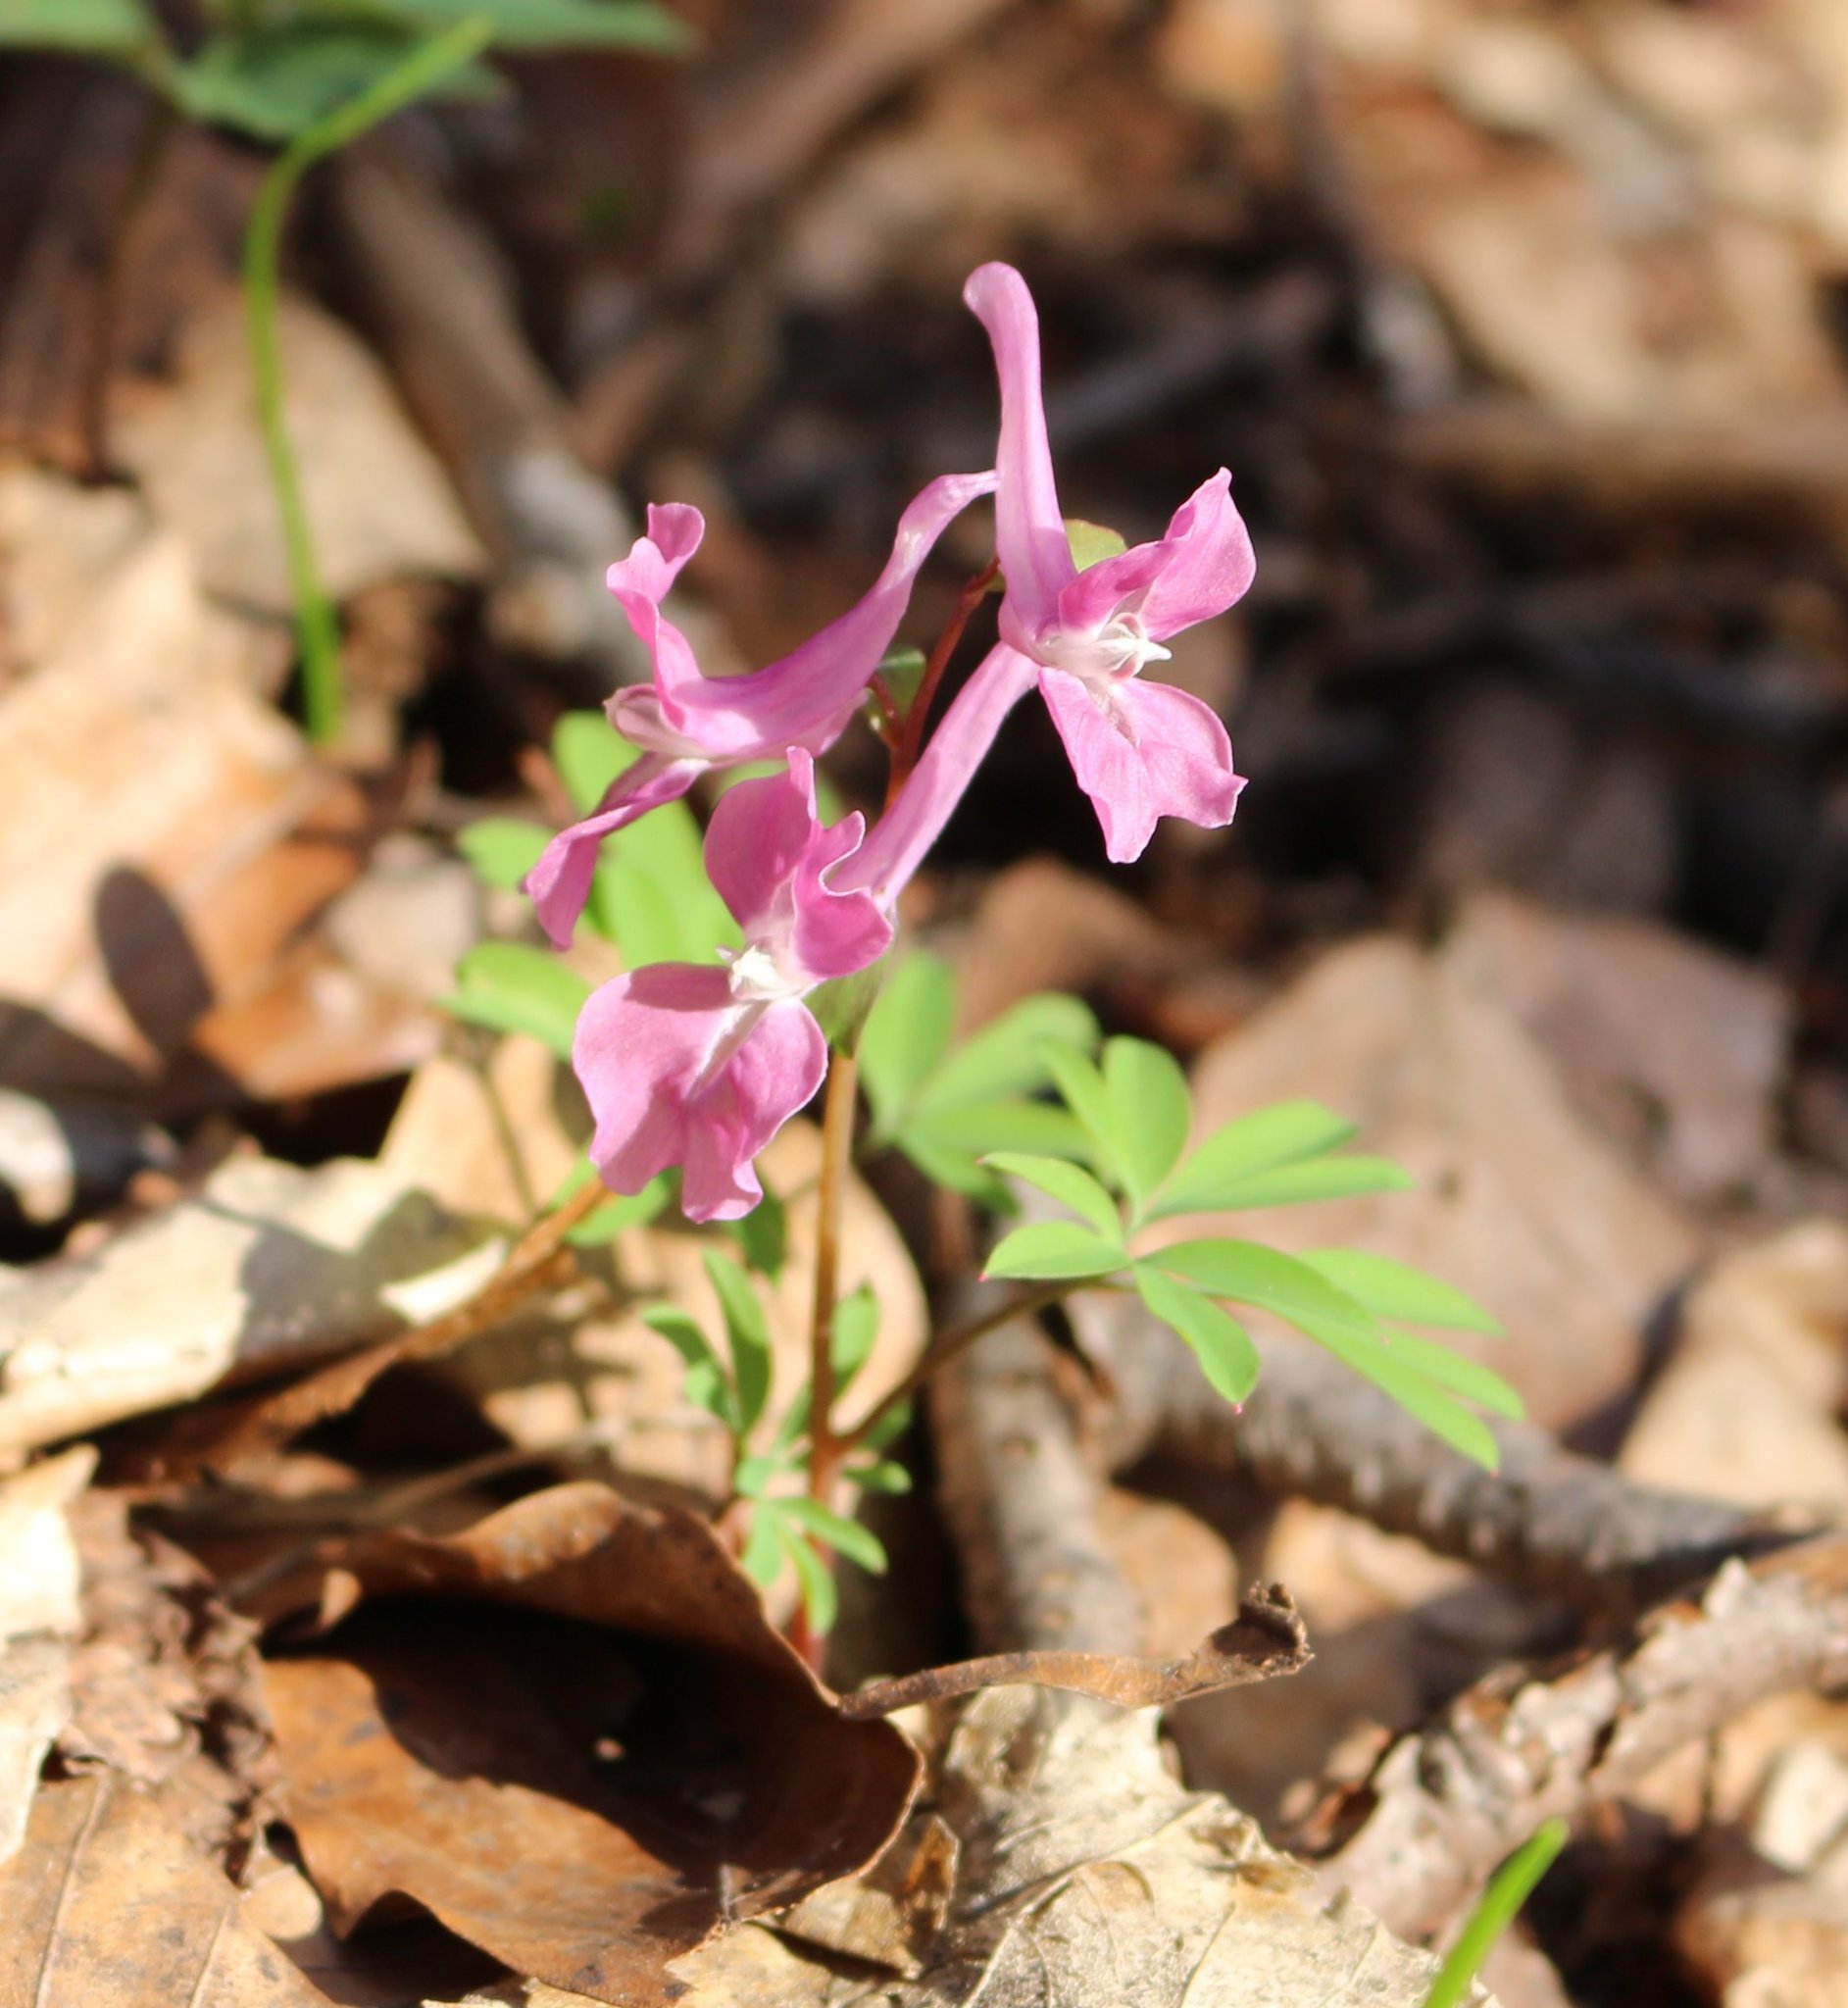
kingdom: Plantae
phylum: Tracheophyta
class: Magnoliopsida
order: Ranunculales
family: Papaveraceae
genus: Corydalis
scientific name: Corydalis caucasica
